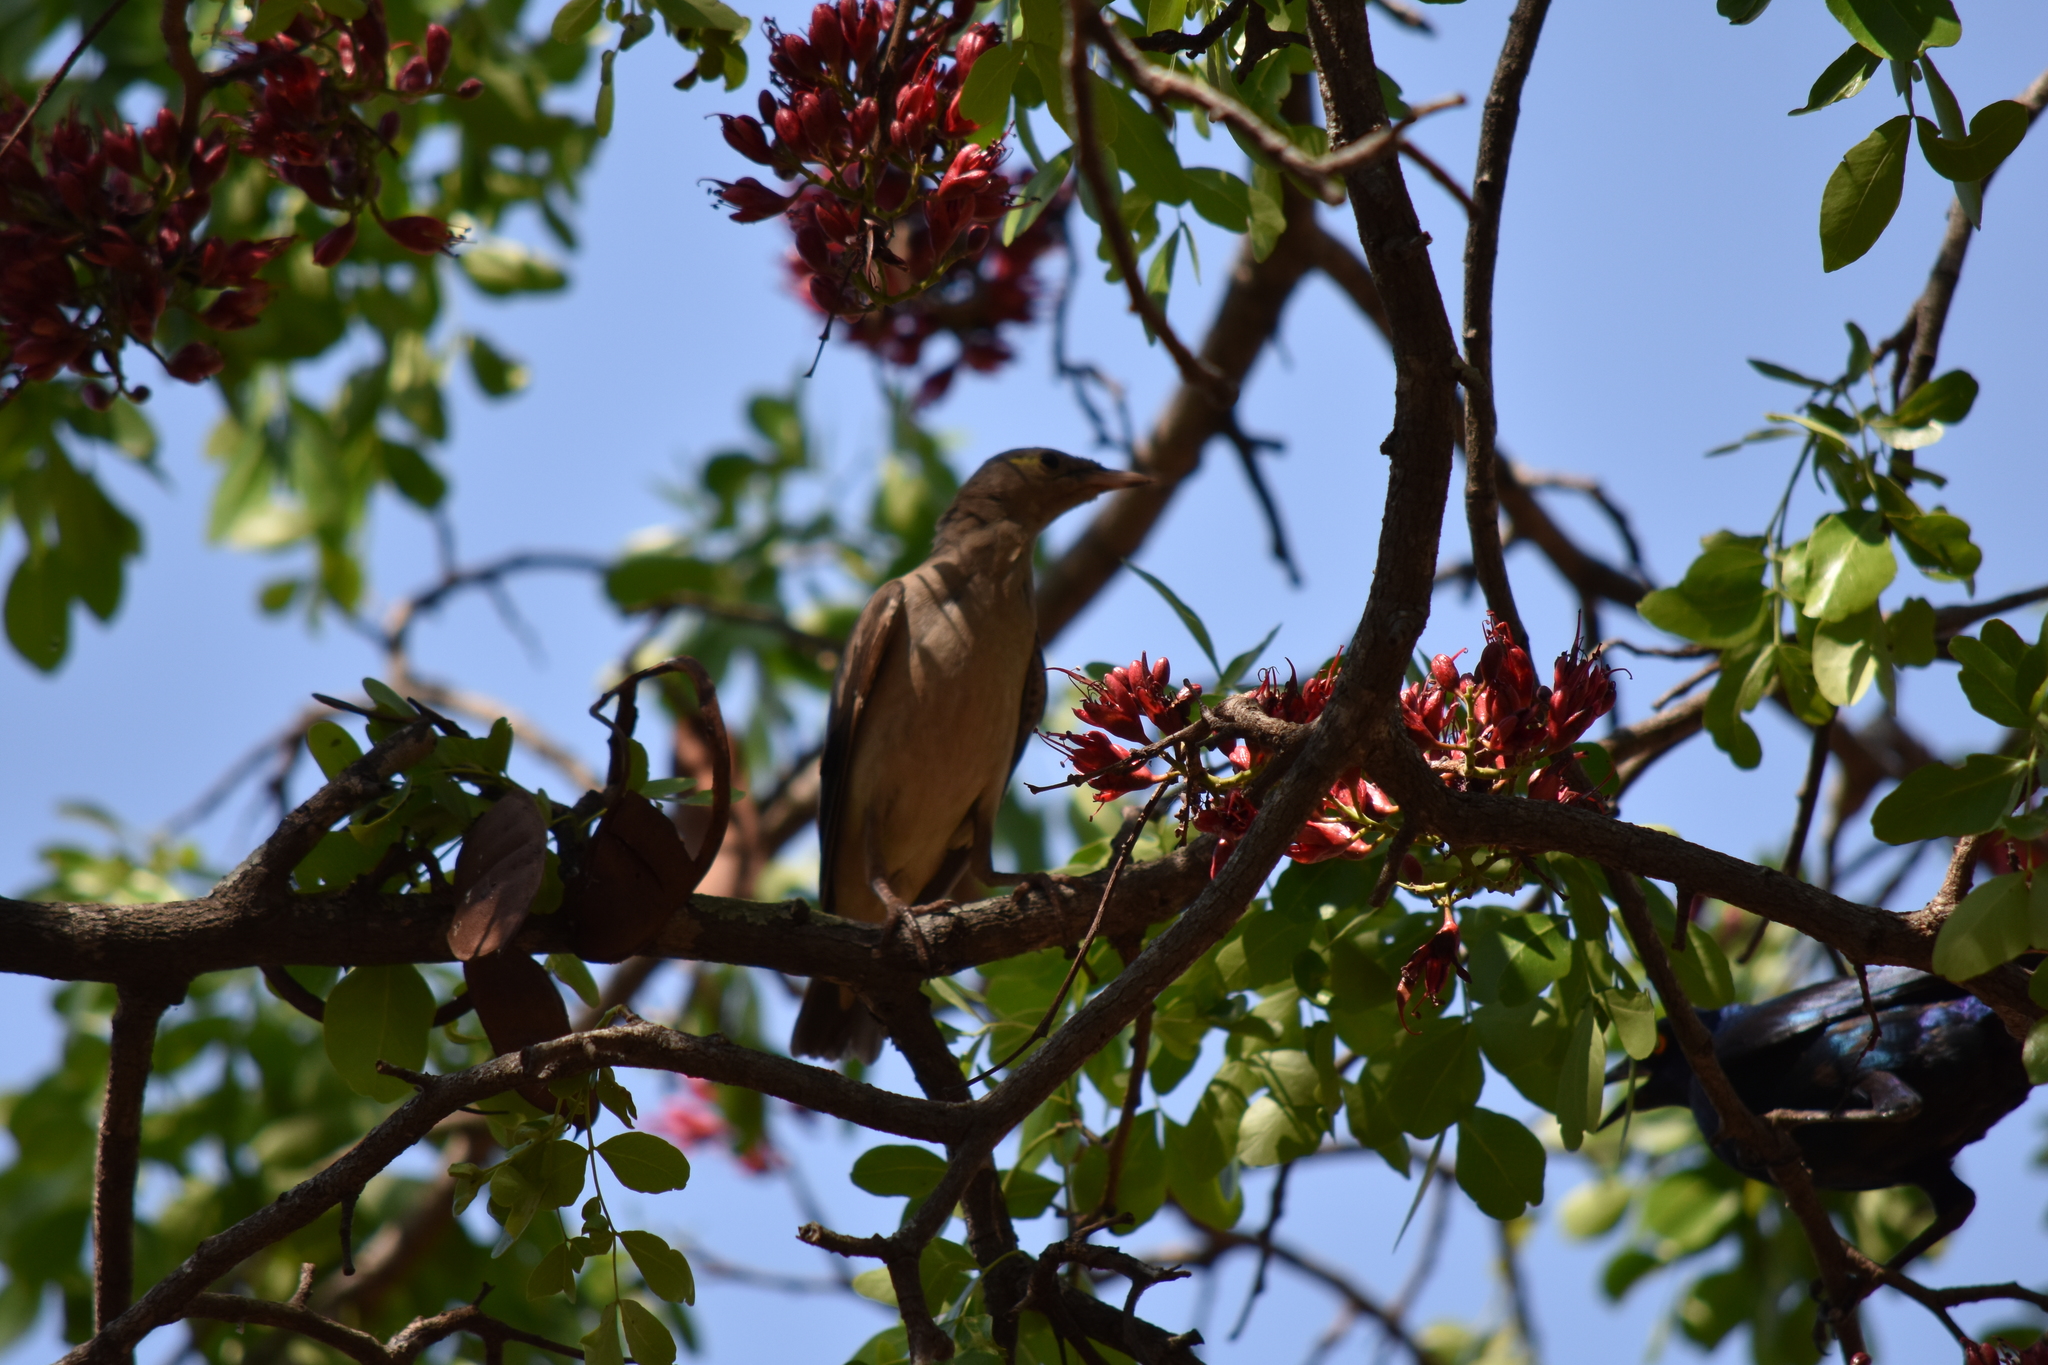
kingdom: Animalia
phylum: Chordata
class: Aves
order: Passeriformes
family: Sturnidae
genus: Creatophora
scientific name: Creatophora cinerea
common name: Wattled starling
